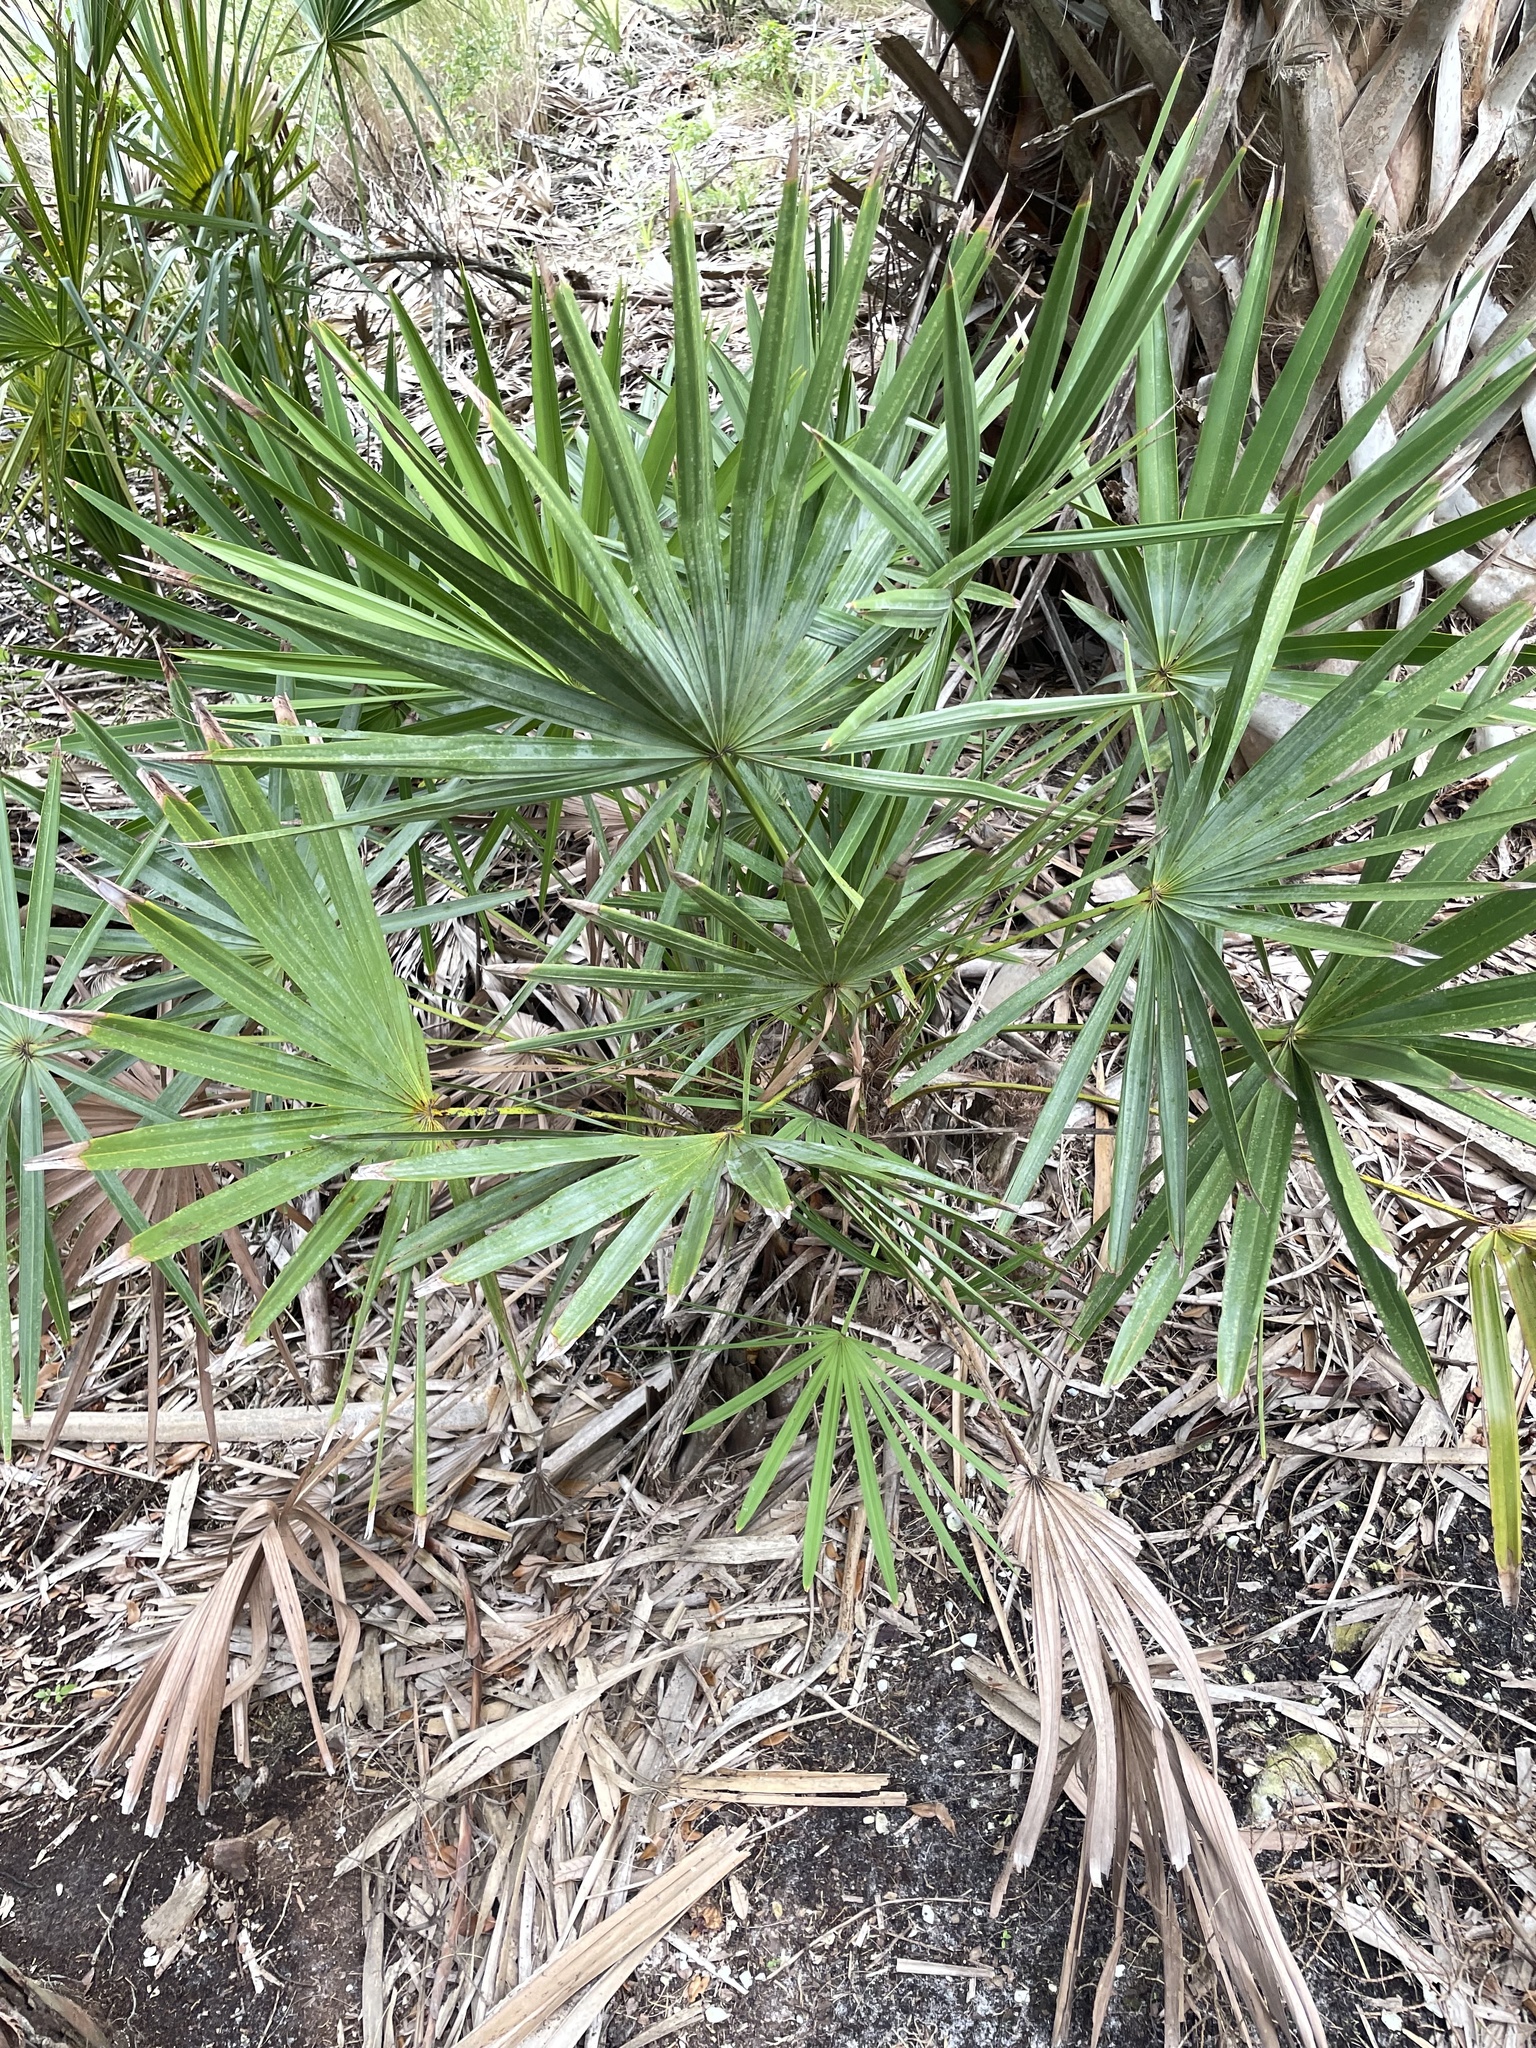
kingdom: Plantae
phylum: Tracheophyta
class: Liliopsida
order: Arecales
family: Arecaceae
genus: Serenoa
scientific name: Serenoa repens
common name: Saw-palmetto
